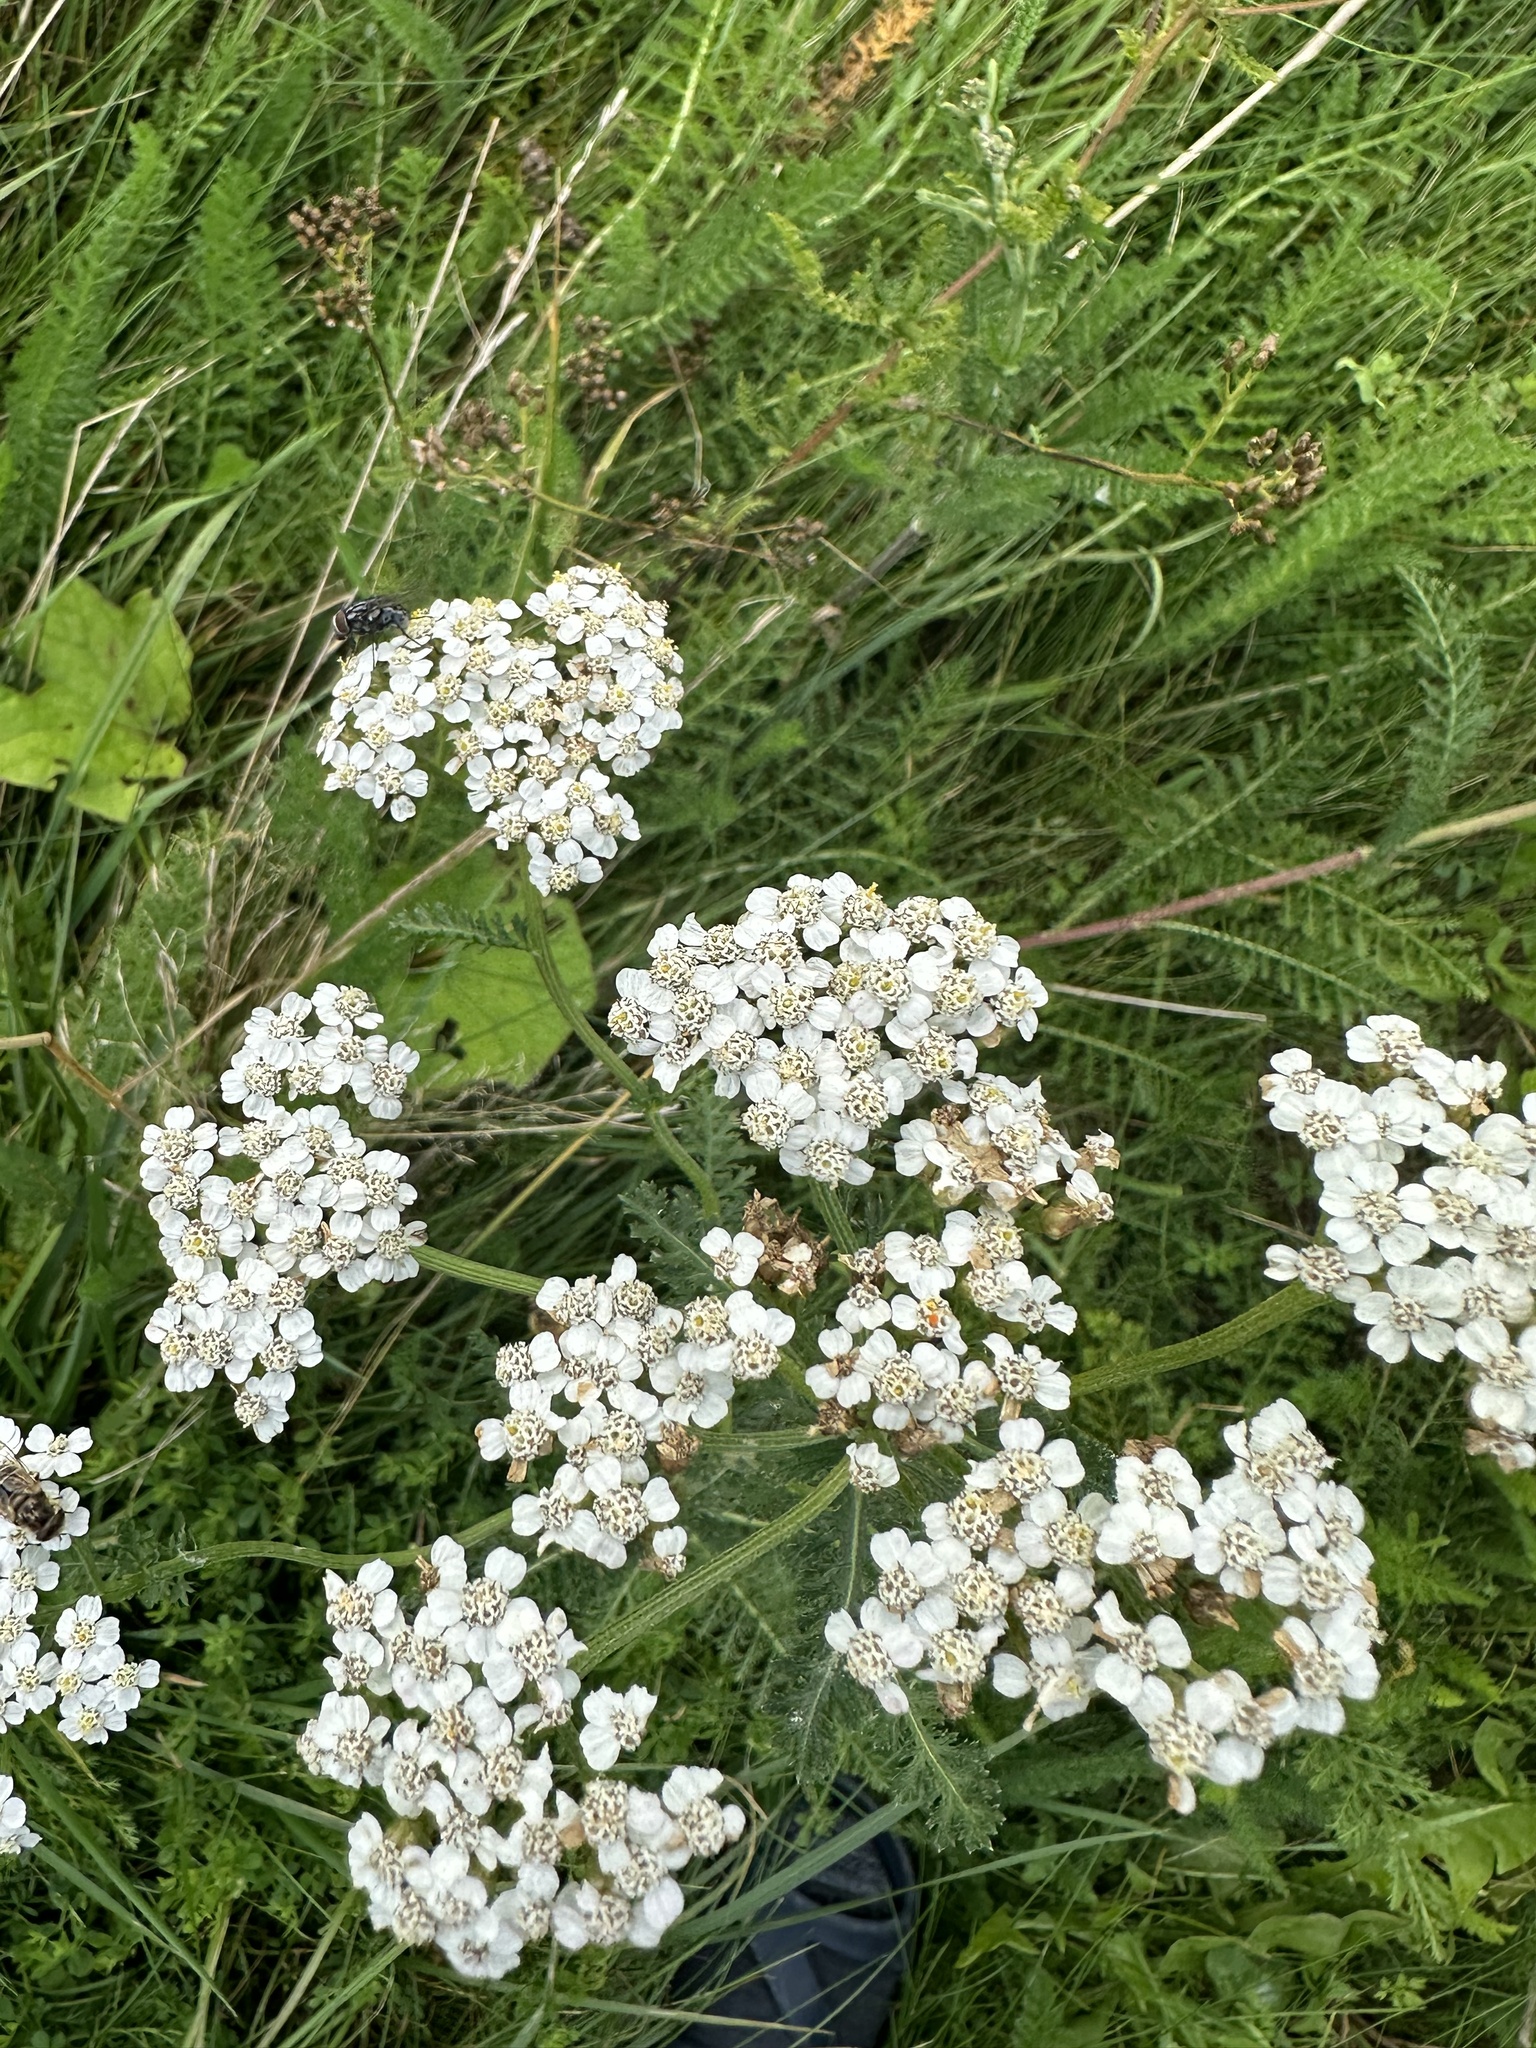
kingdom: Plantae
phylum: Tracheophyta
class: Magnoliopsida
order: Asterales
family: Asteraceae
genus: Achillea
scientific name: Achillea millefolium
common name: Yarrow
